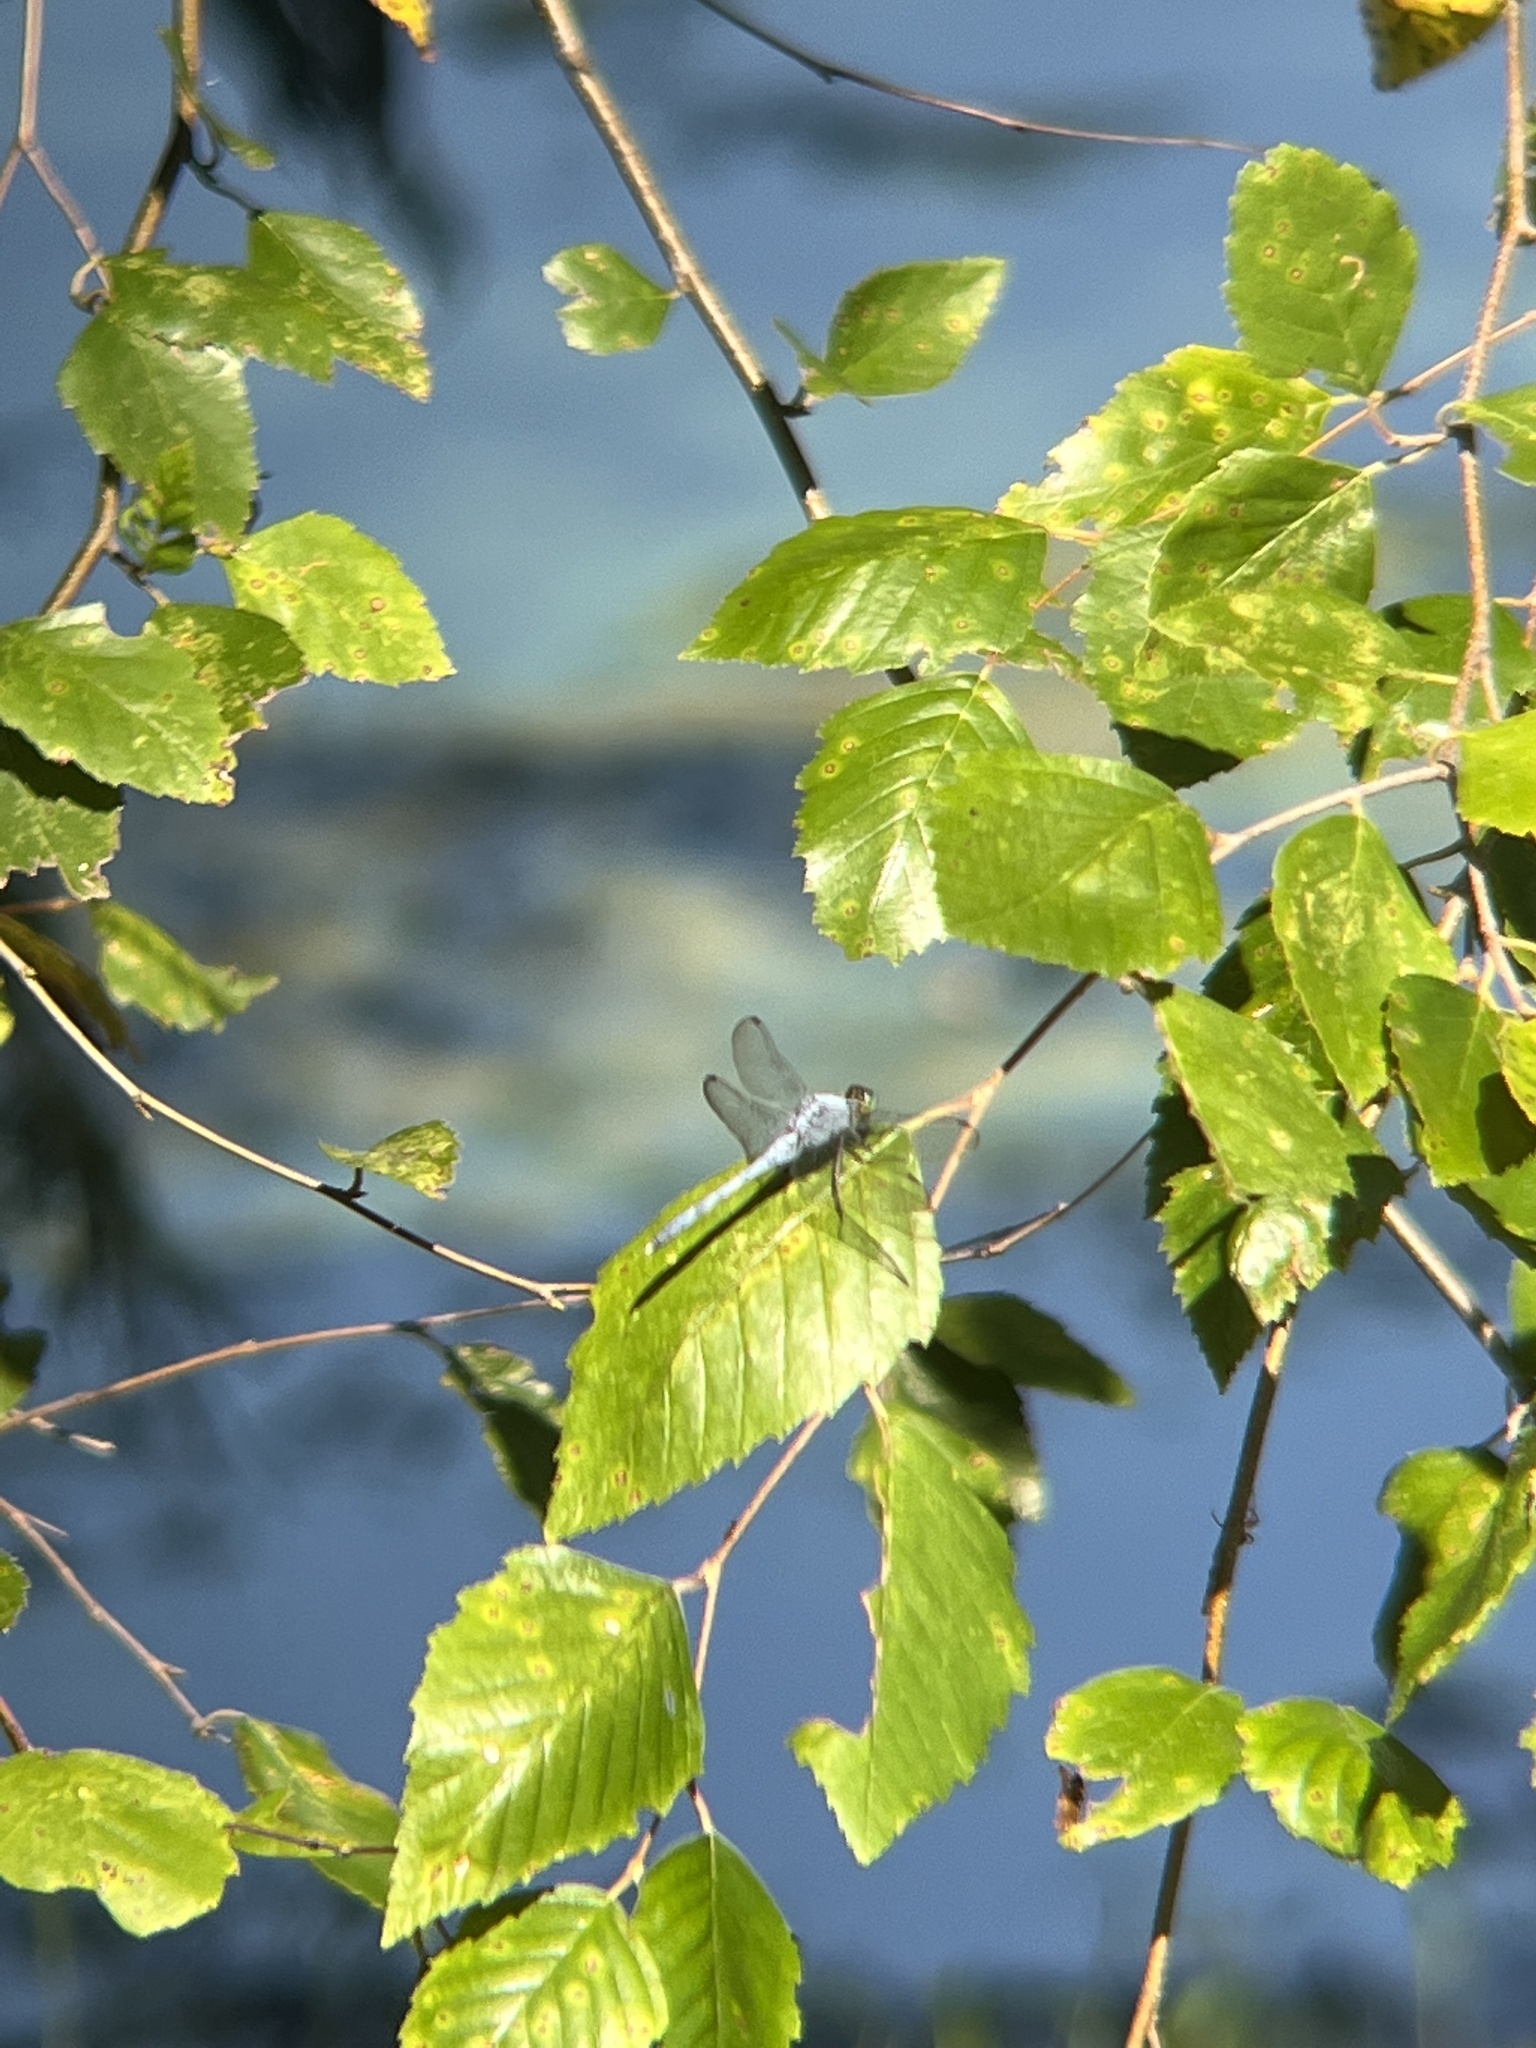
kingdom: Animalia
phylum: Arthropoda
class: Insecta
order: Odonata
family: Libellulidae
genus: Erythemis
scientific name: Erythemis simplicicollis
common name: Eastern pondhawk
